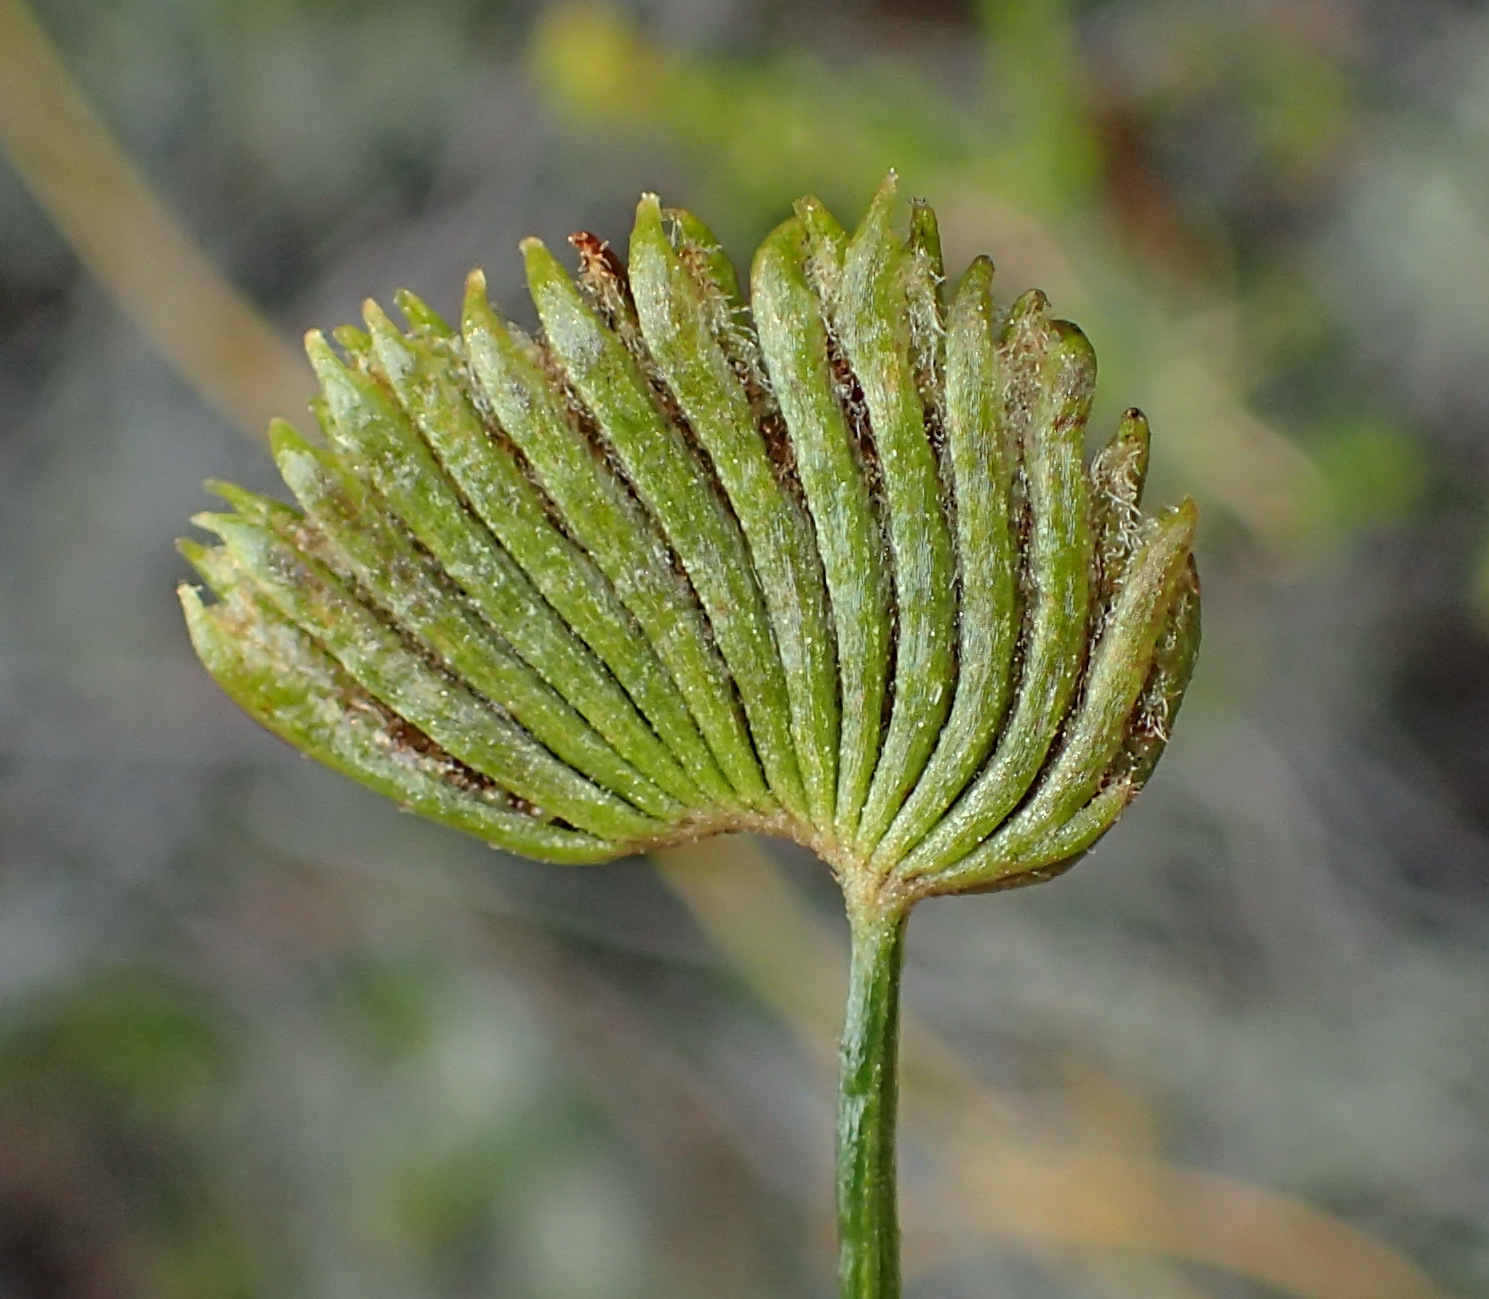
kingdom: Plantae
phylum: Tracheophyta
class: Polypodiopsida
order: Schizaeales
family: Schizaeaceae
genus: Schizaea
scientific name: Schizaea pectinata
